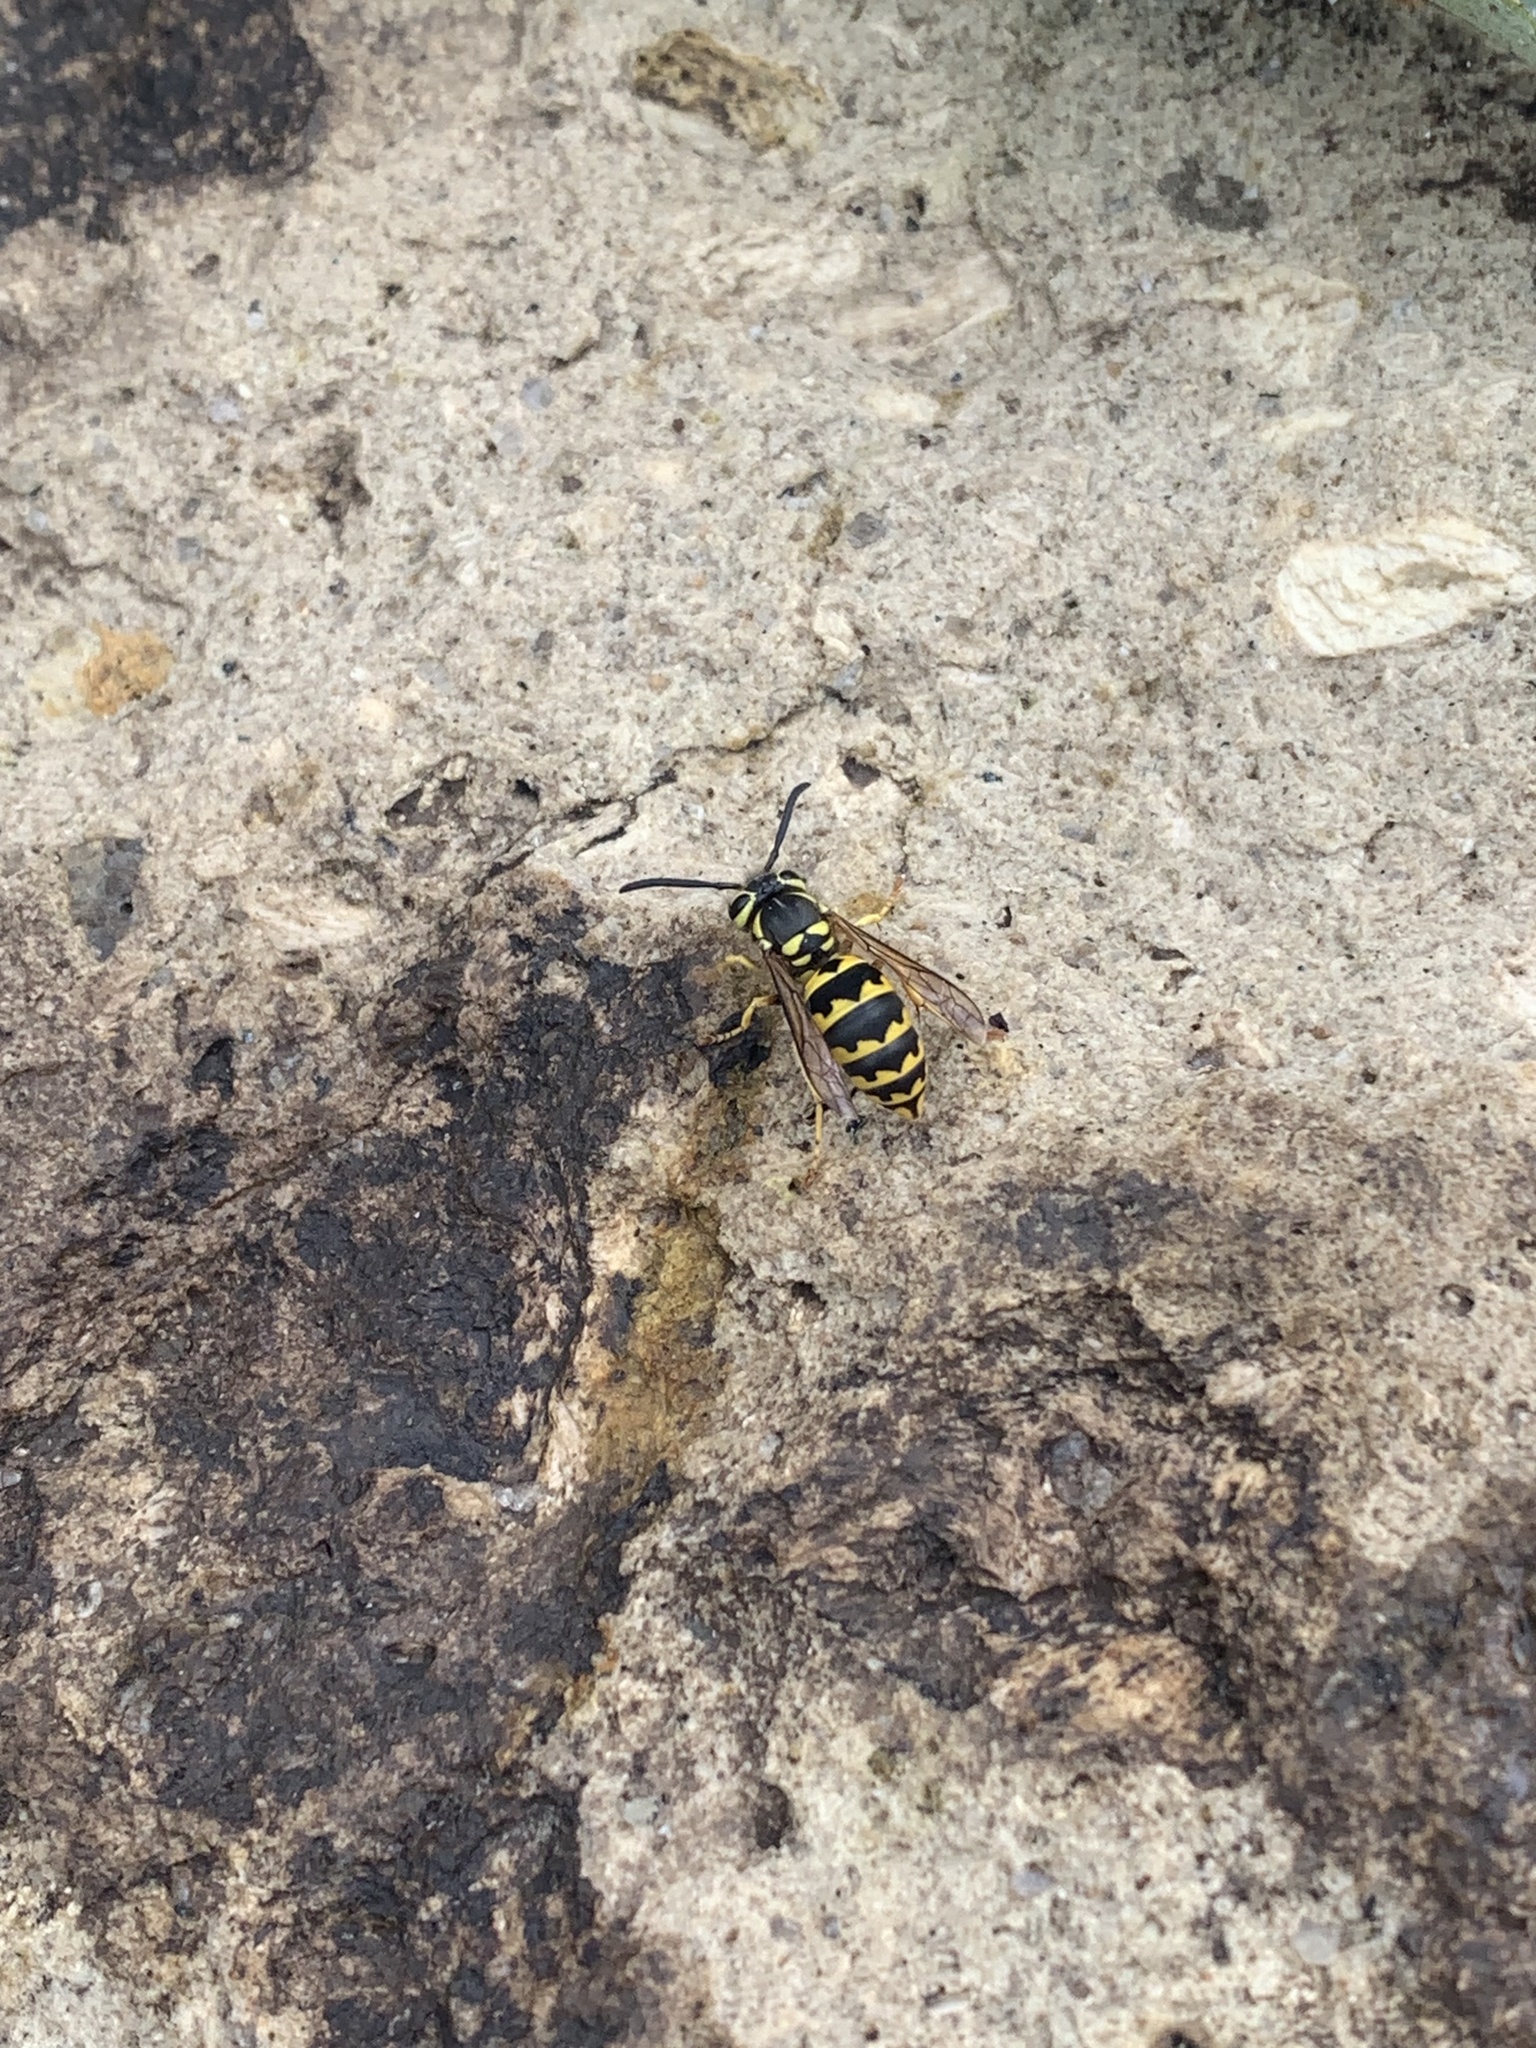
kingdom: Animalia
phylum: Arthropoda
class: Insecta
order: Hymenoptera
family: Vespidae
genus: Vespula
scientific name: Vespula pensylvanica
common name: Western yellowjacket
